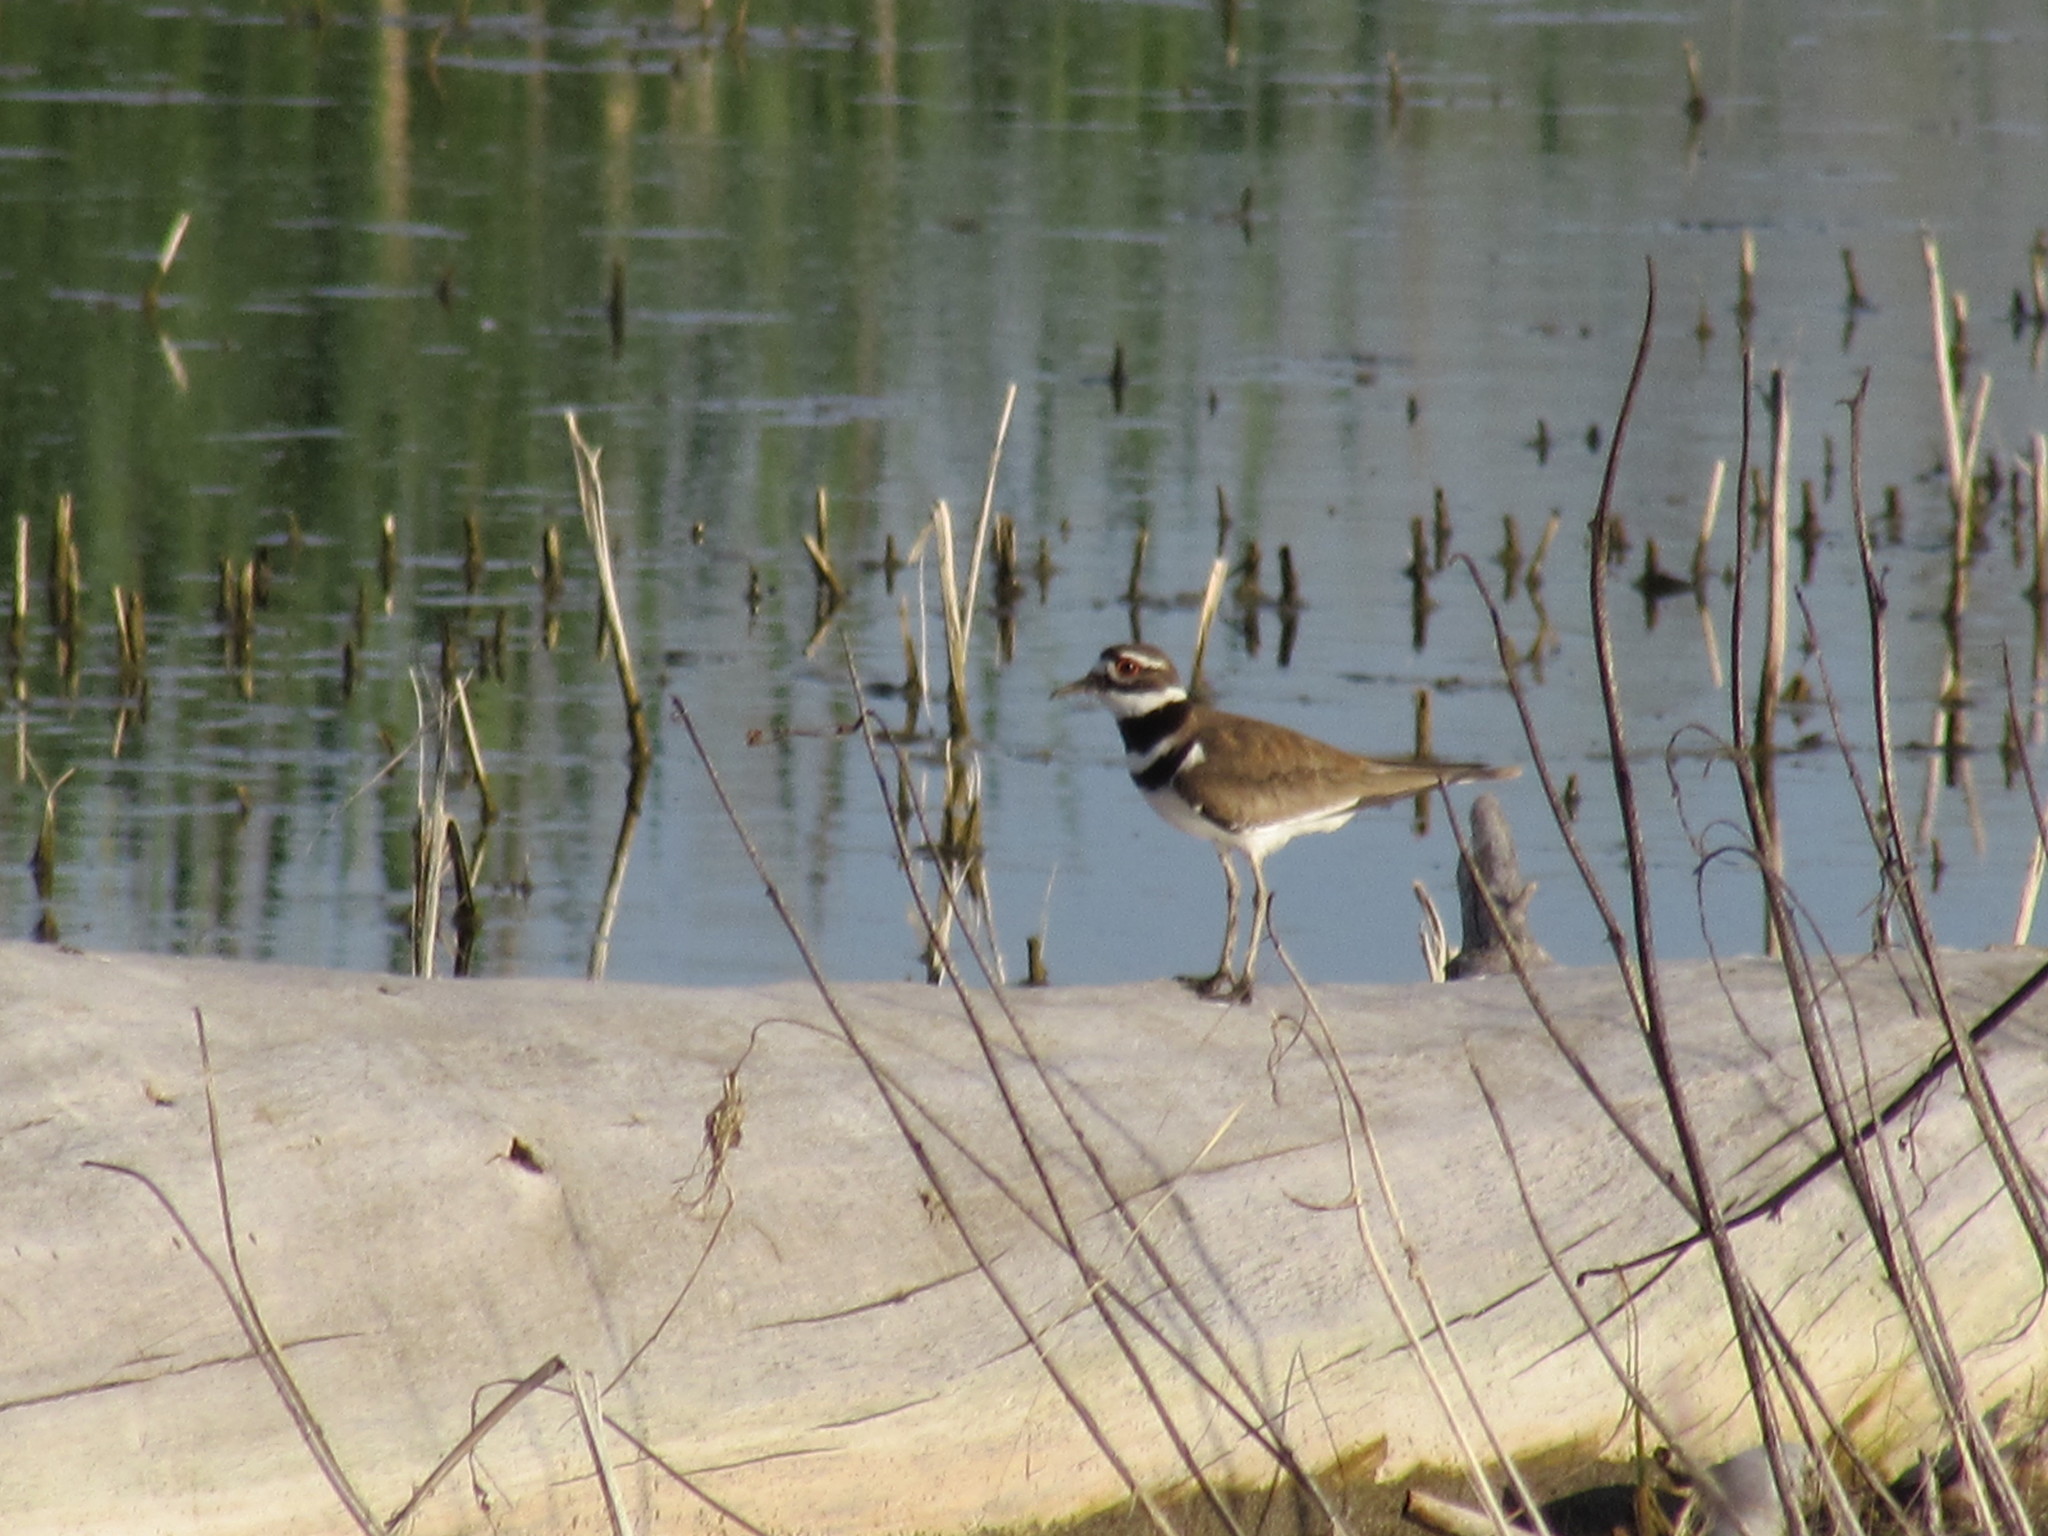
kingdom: Animalia
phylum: Chordata
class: Aves
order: Charadriiformes
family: Charadriidae
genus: Charadrius
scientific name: Charadrius vociferus
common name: Killdeer
